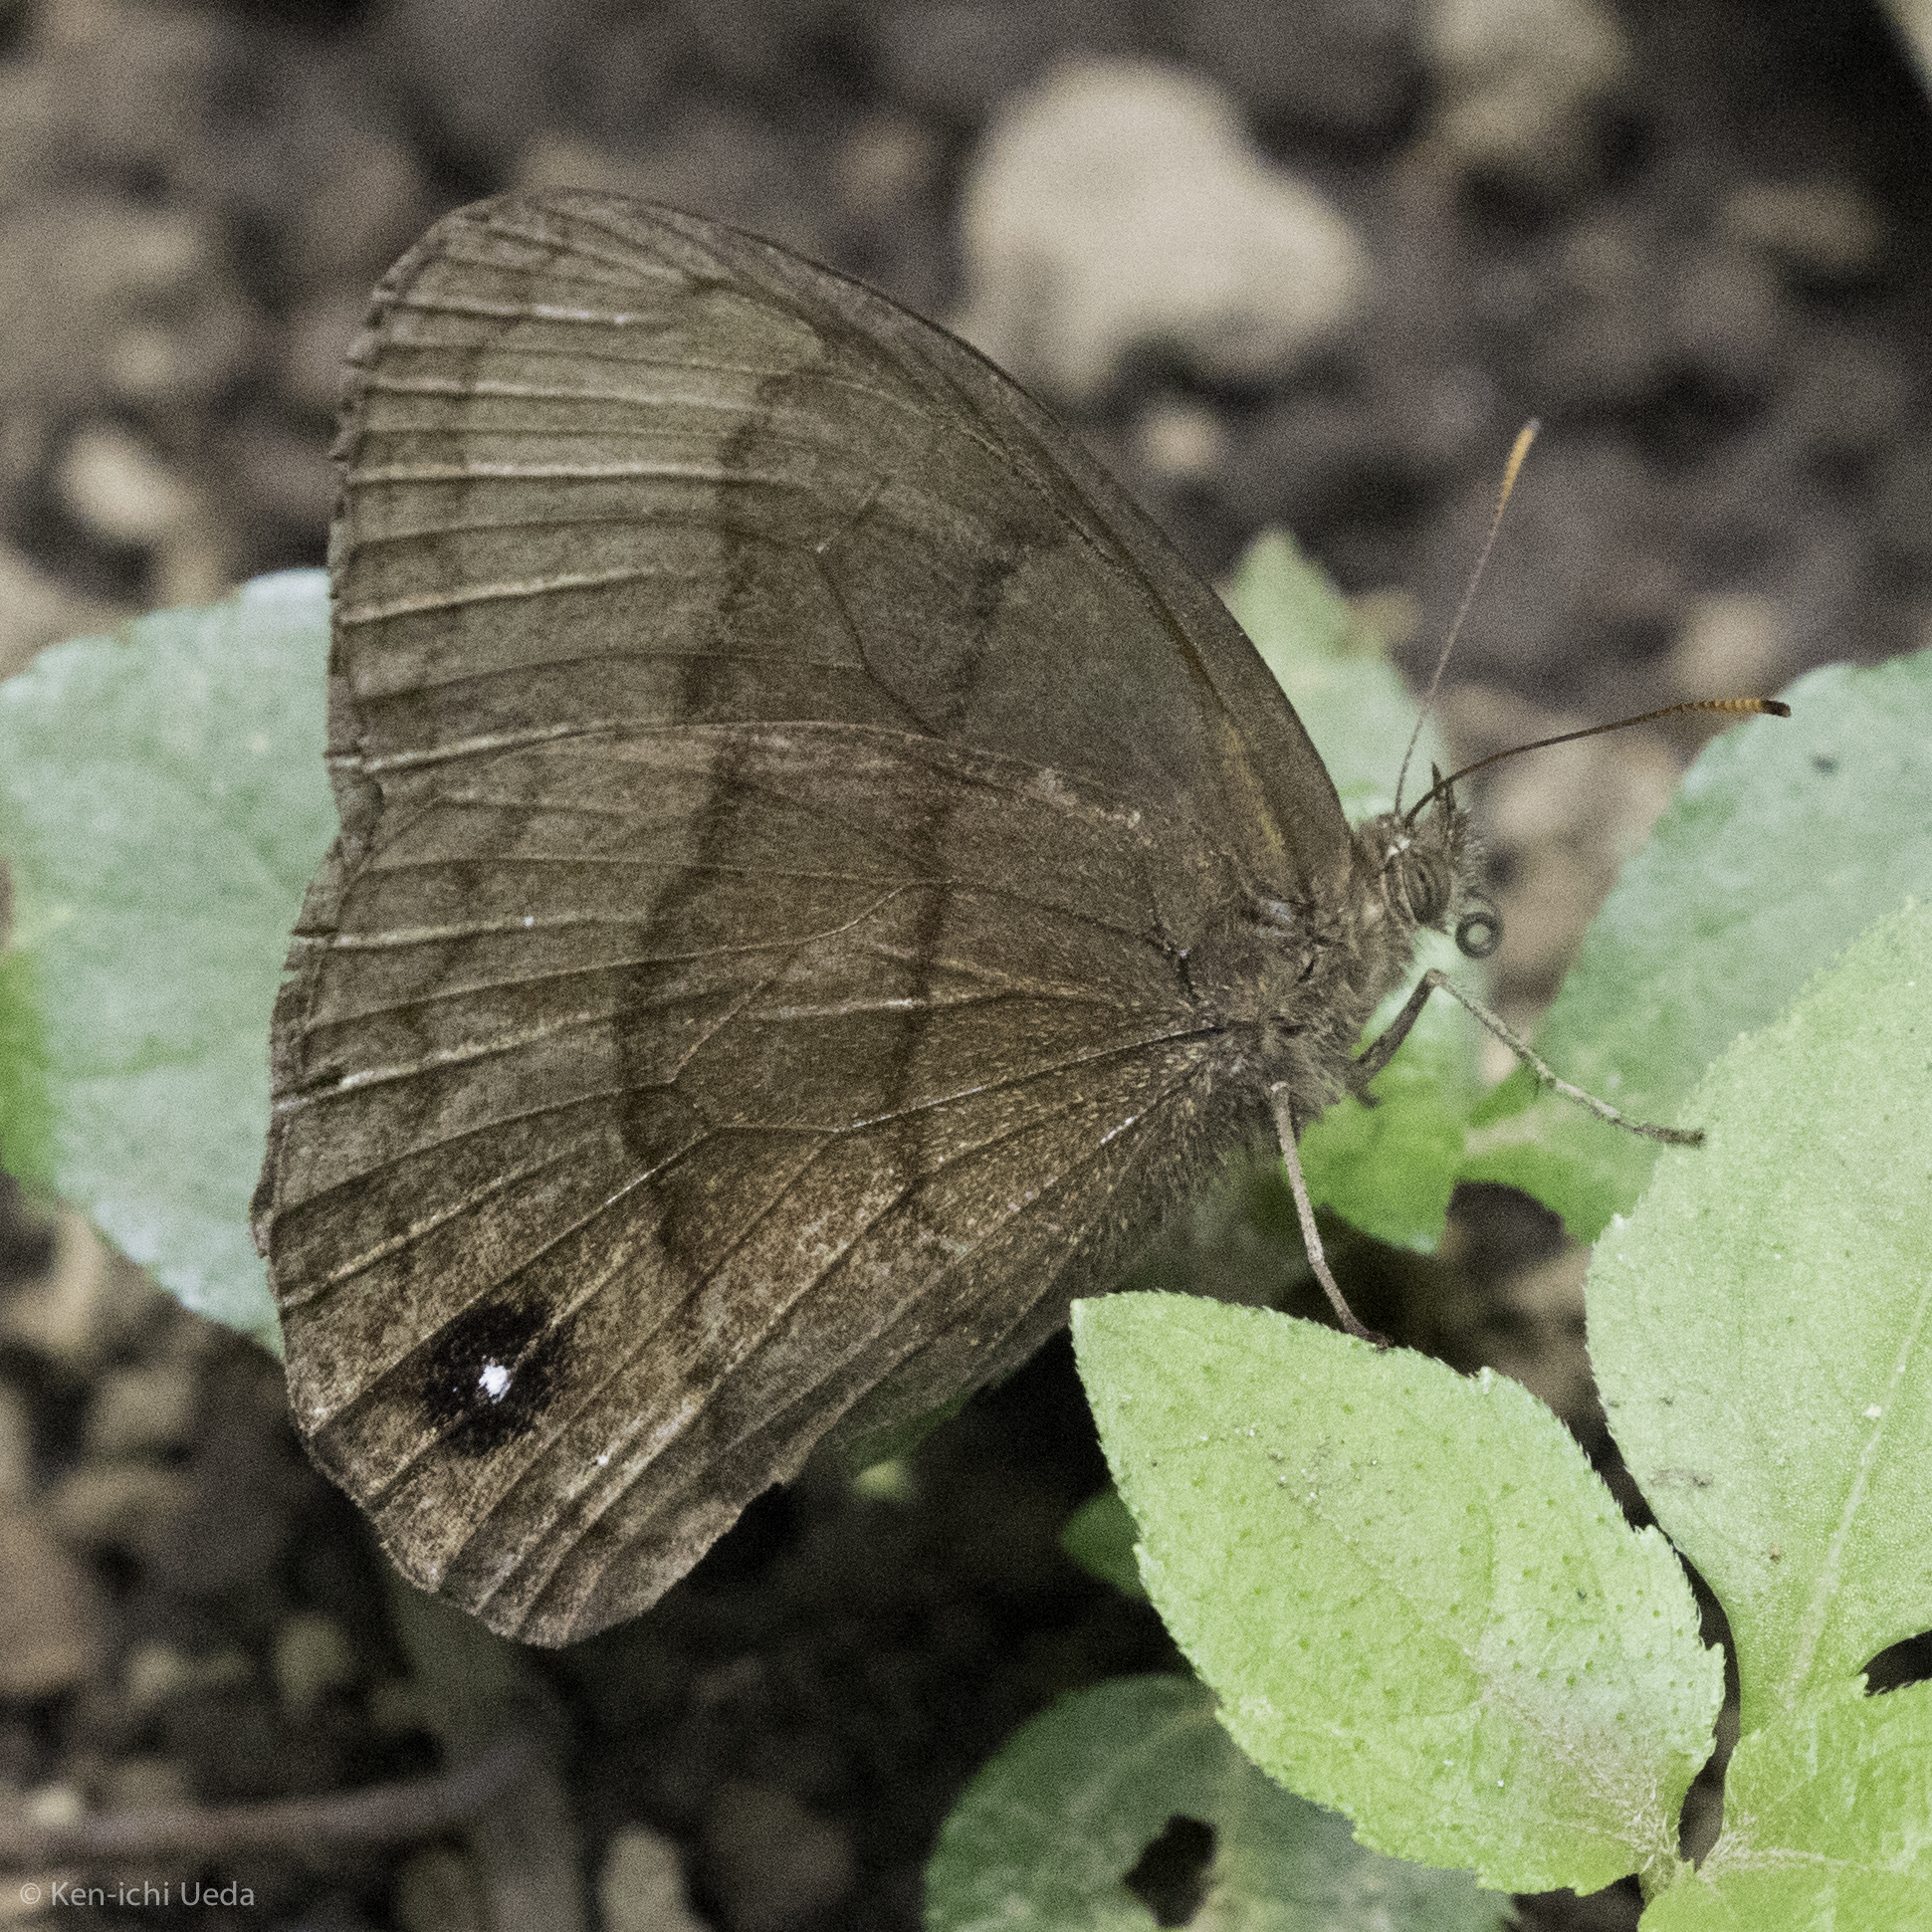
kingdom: Animalia
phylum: Arthropoda
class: Insecta
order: Lepidoptera
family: Nymphalidae
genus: Forsterinaria
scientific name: Forsterinaria neonympha
